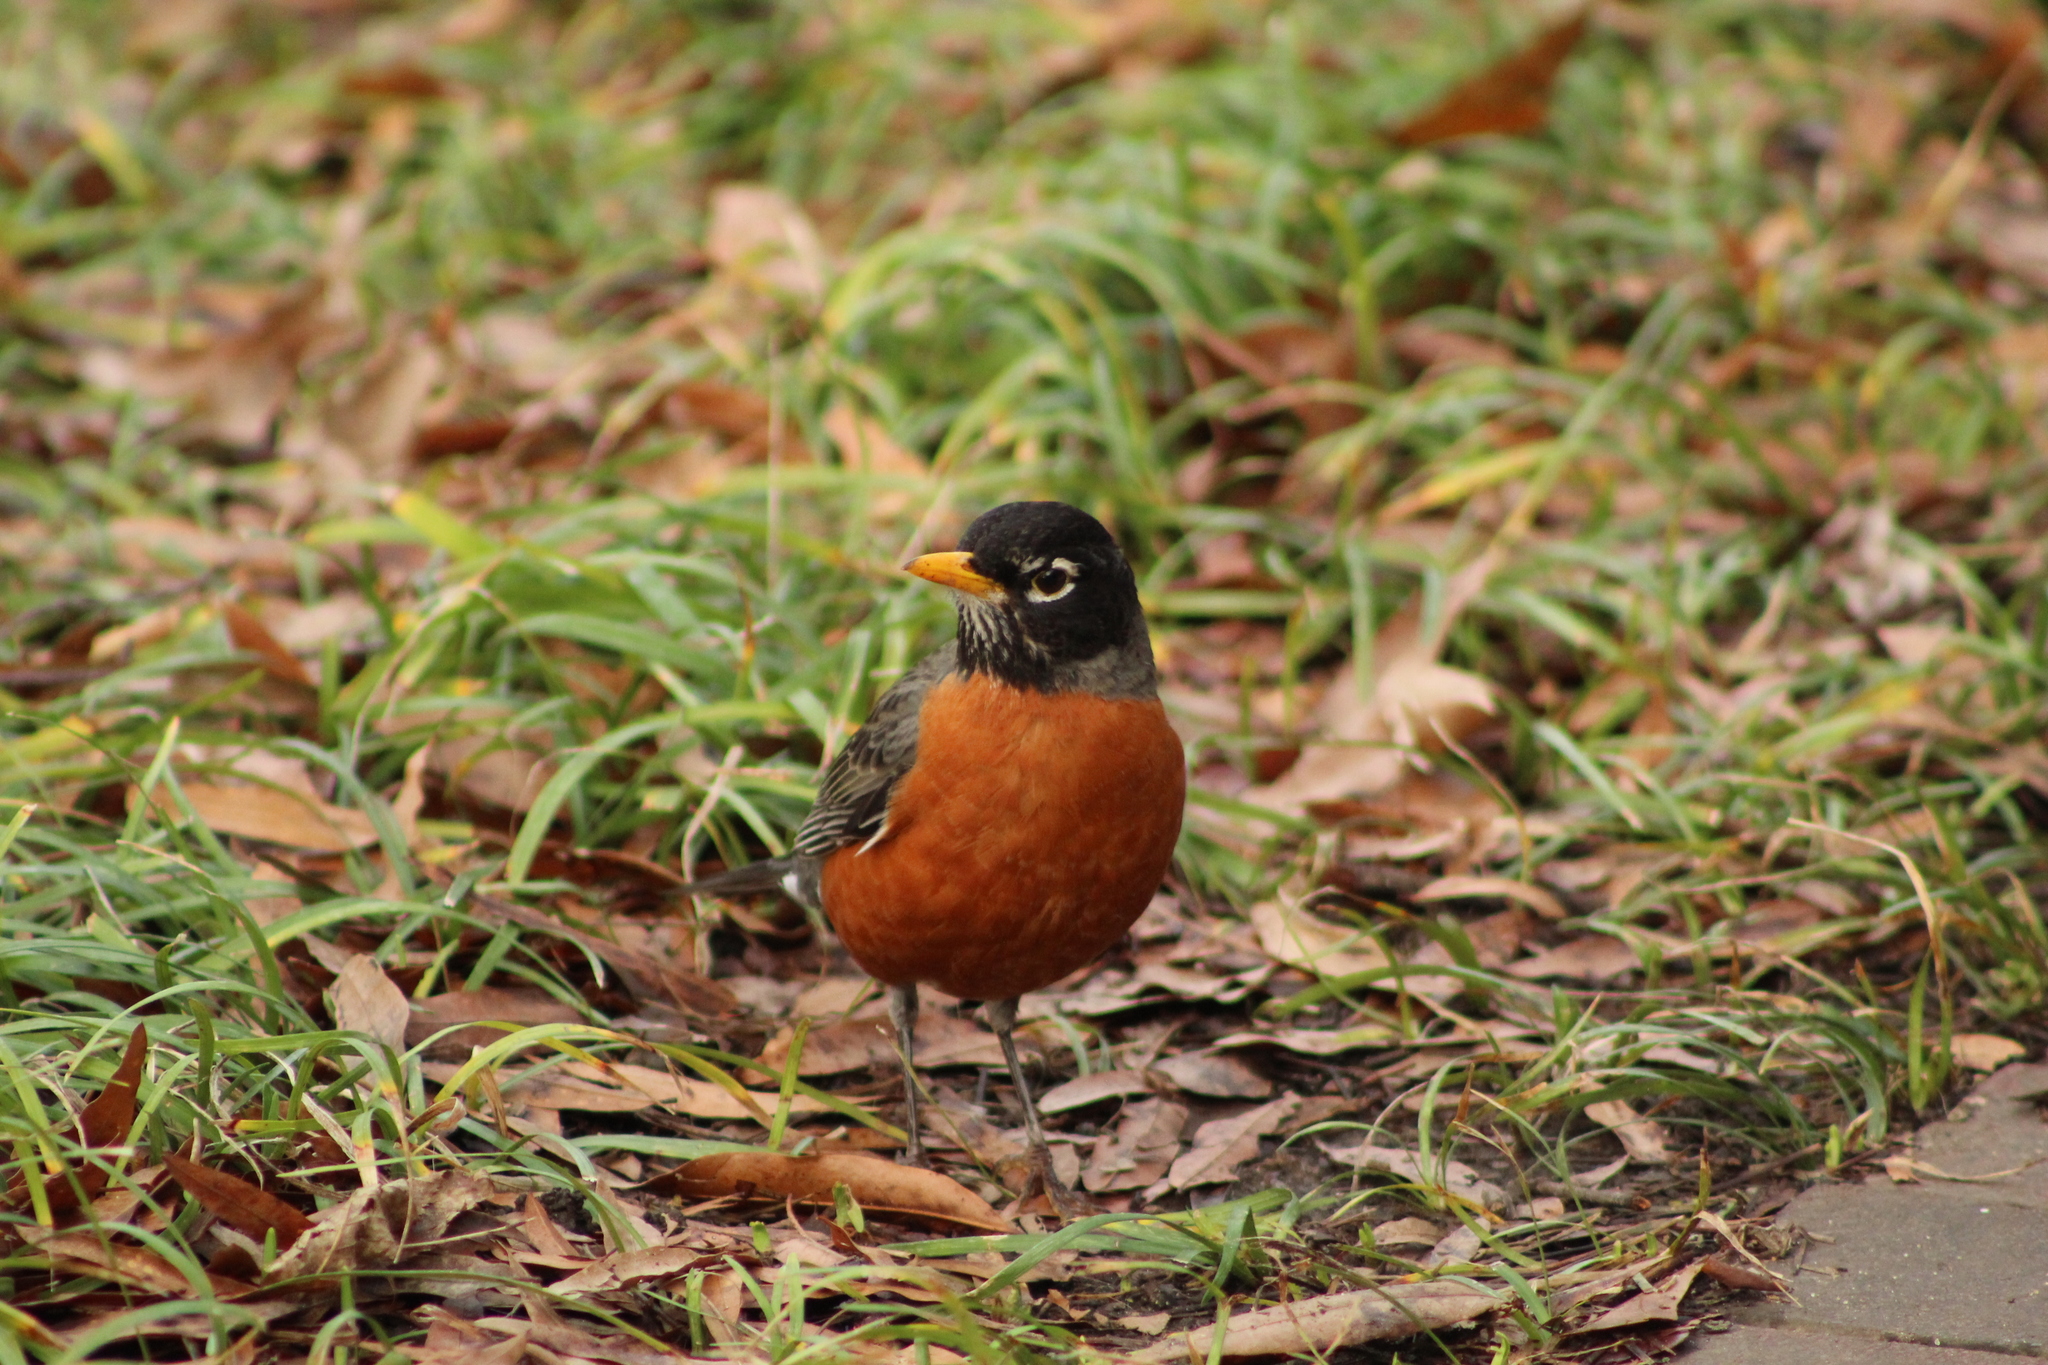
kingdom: Animalia
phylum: Chordata
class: Aves
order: Passeriformes
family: Turdidae
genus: Turdus
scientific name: Turdus migratorius
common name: American robin
